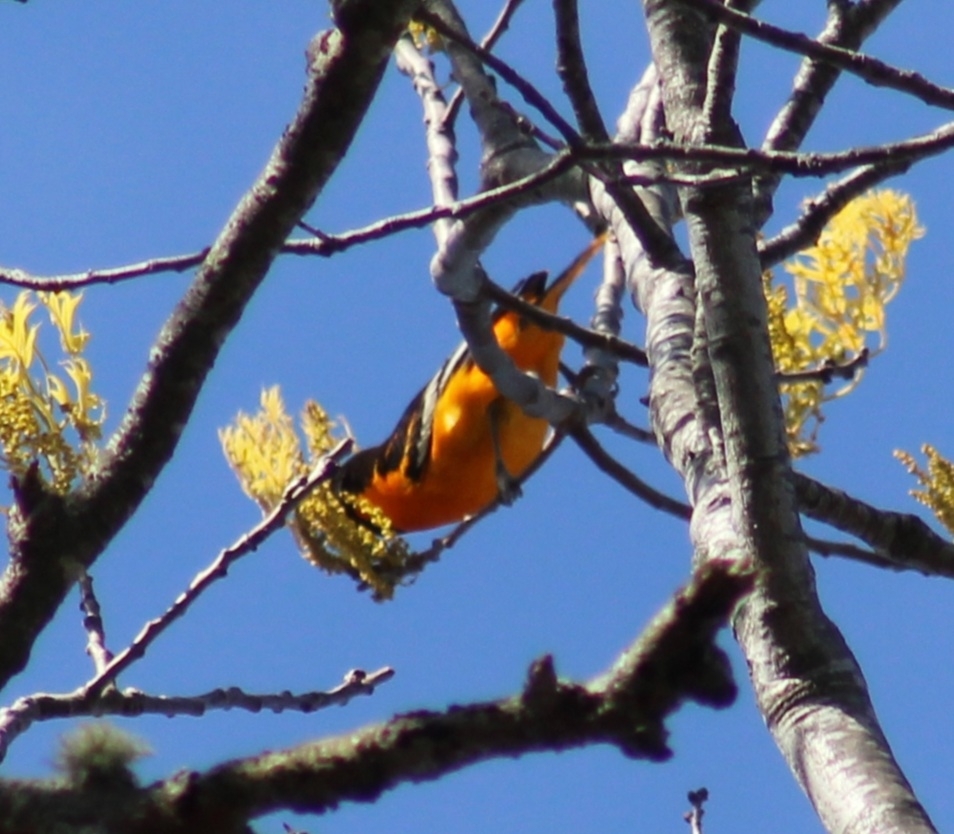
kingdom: Animalia
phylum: Chordata
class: Aves
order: Passeriformes
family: Icteridae
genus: Icterus
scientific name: Icterus galbula
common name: Baltimore oriole
